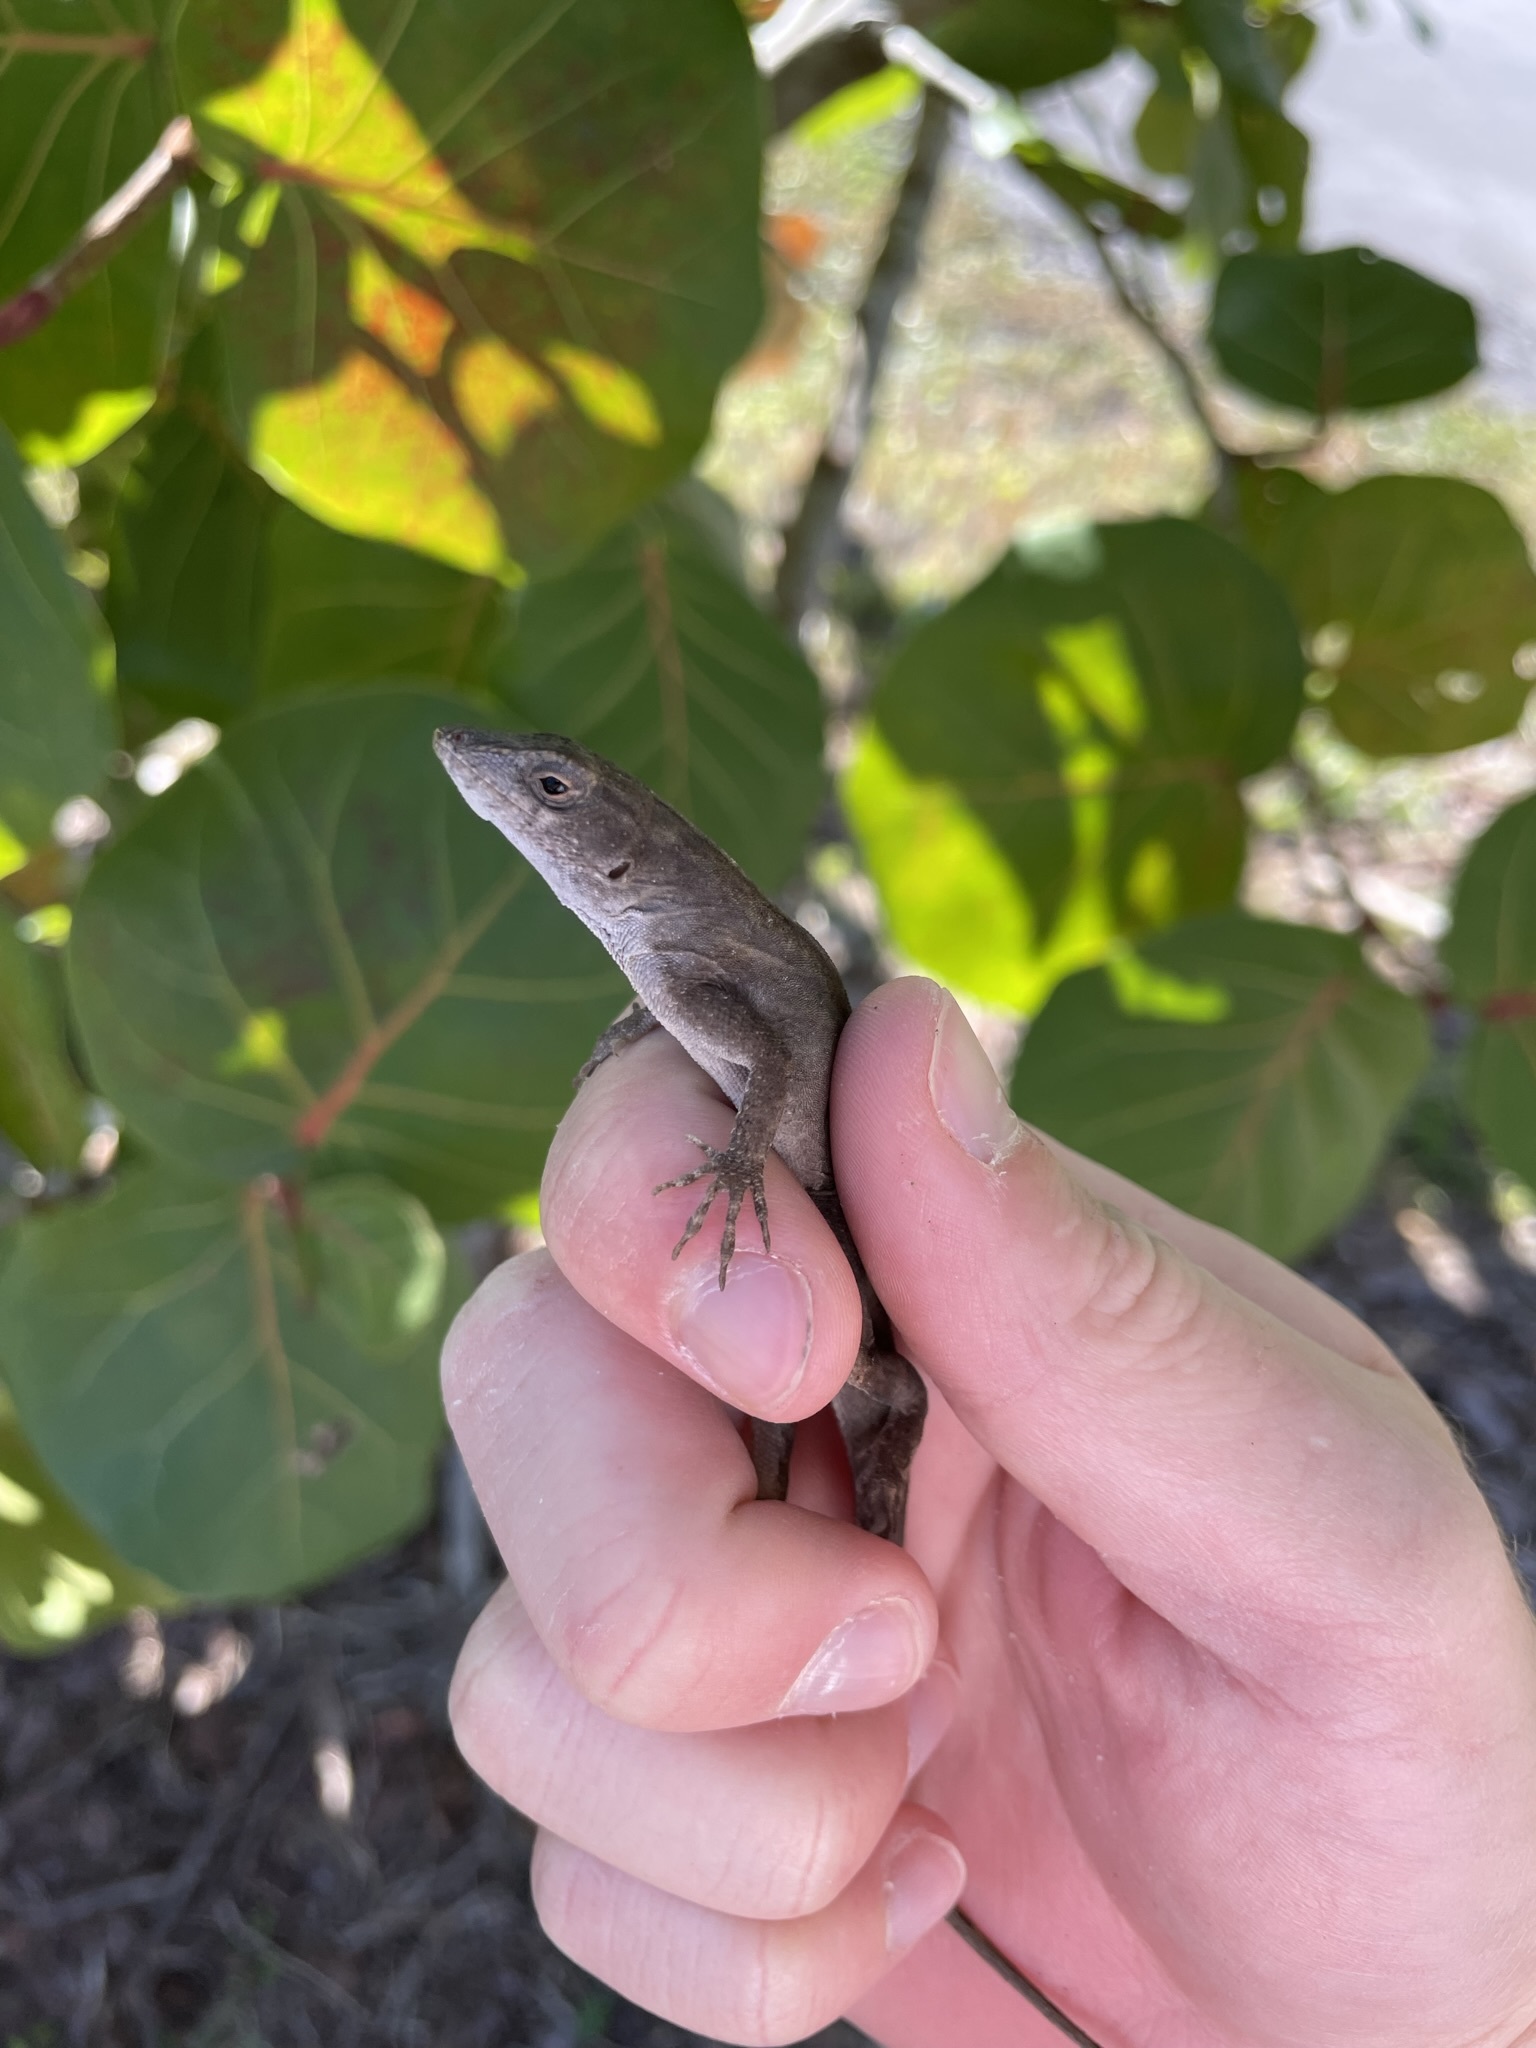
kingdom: Animalia
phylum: Chordata
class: Squamata
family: Dactyloidae
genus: Anolis
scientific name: Anolis sagrei
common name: Brown anole
